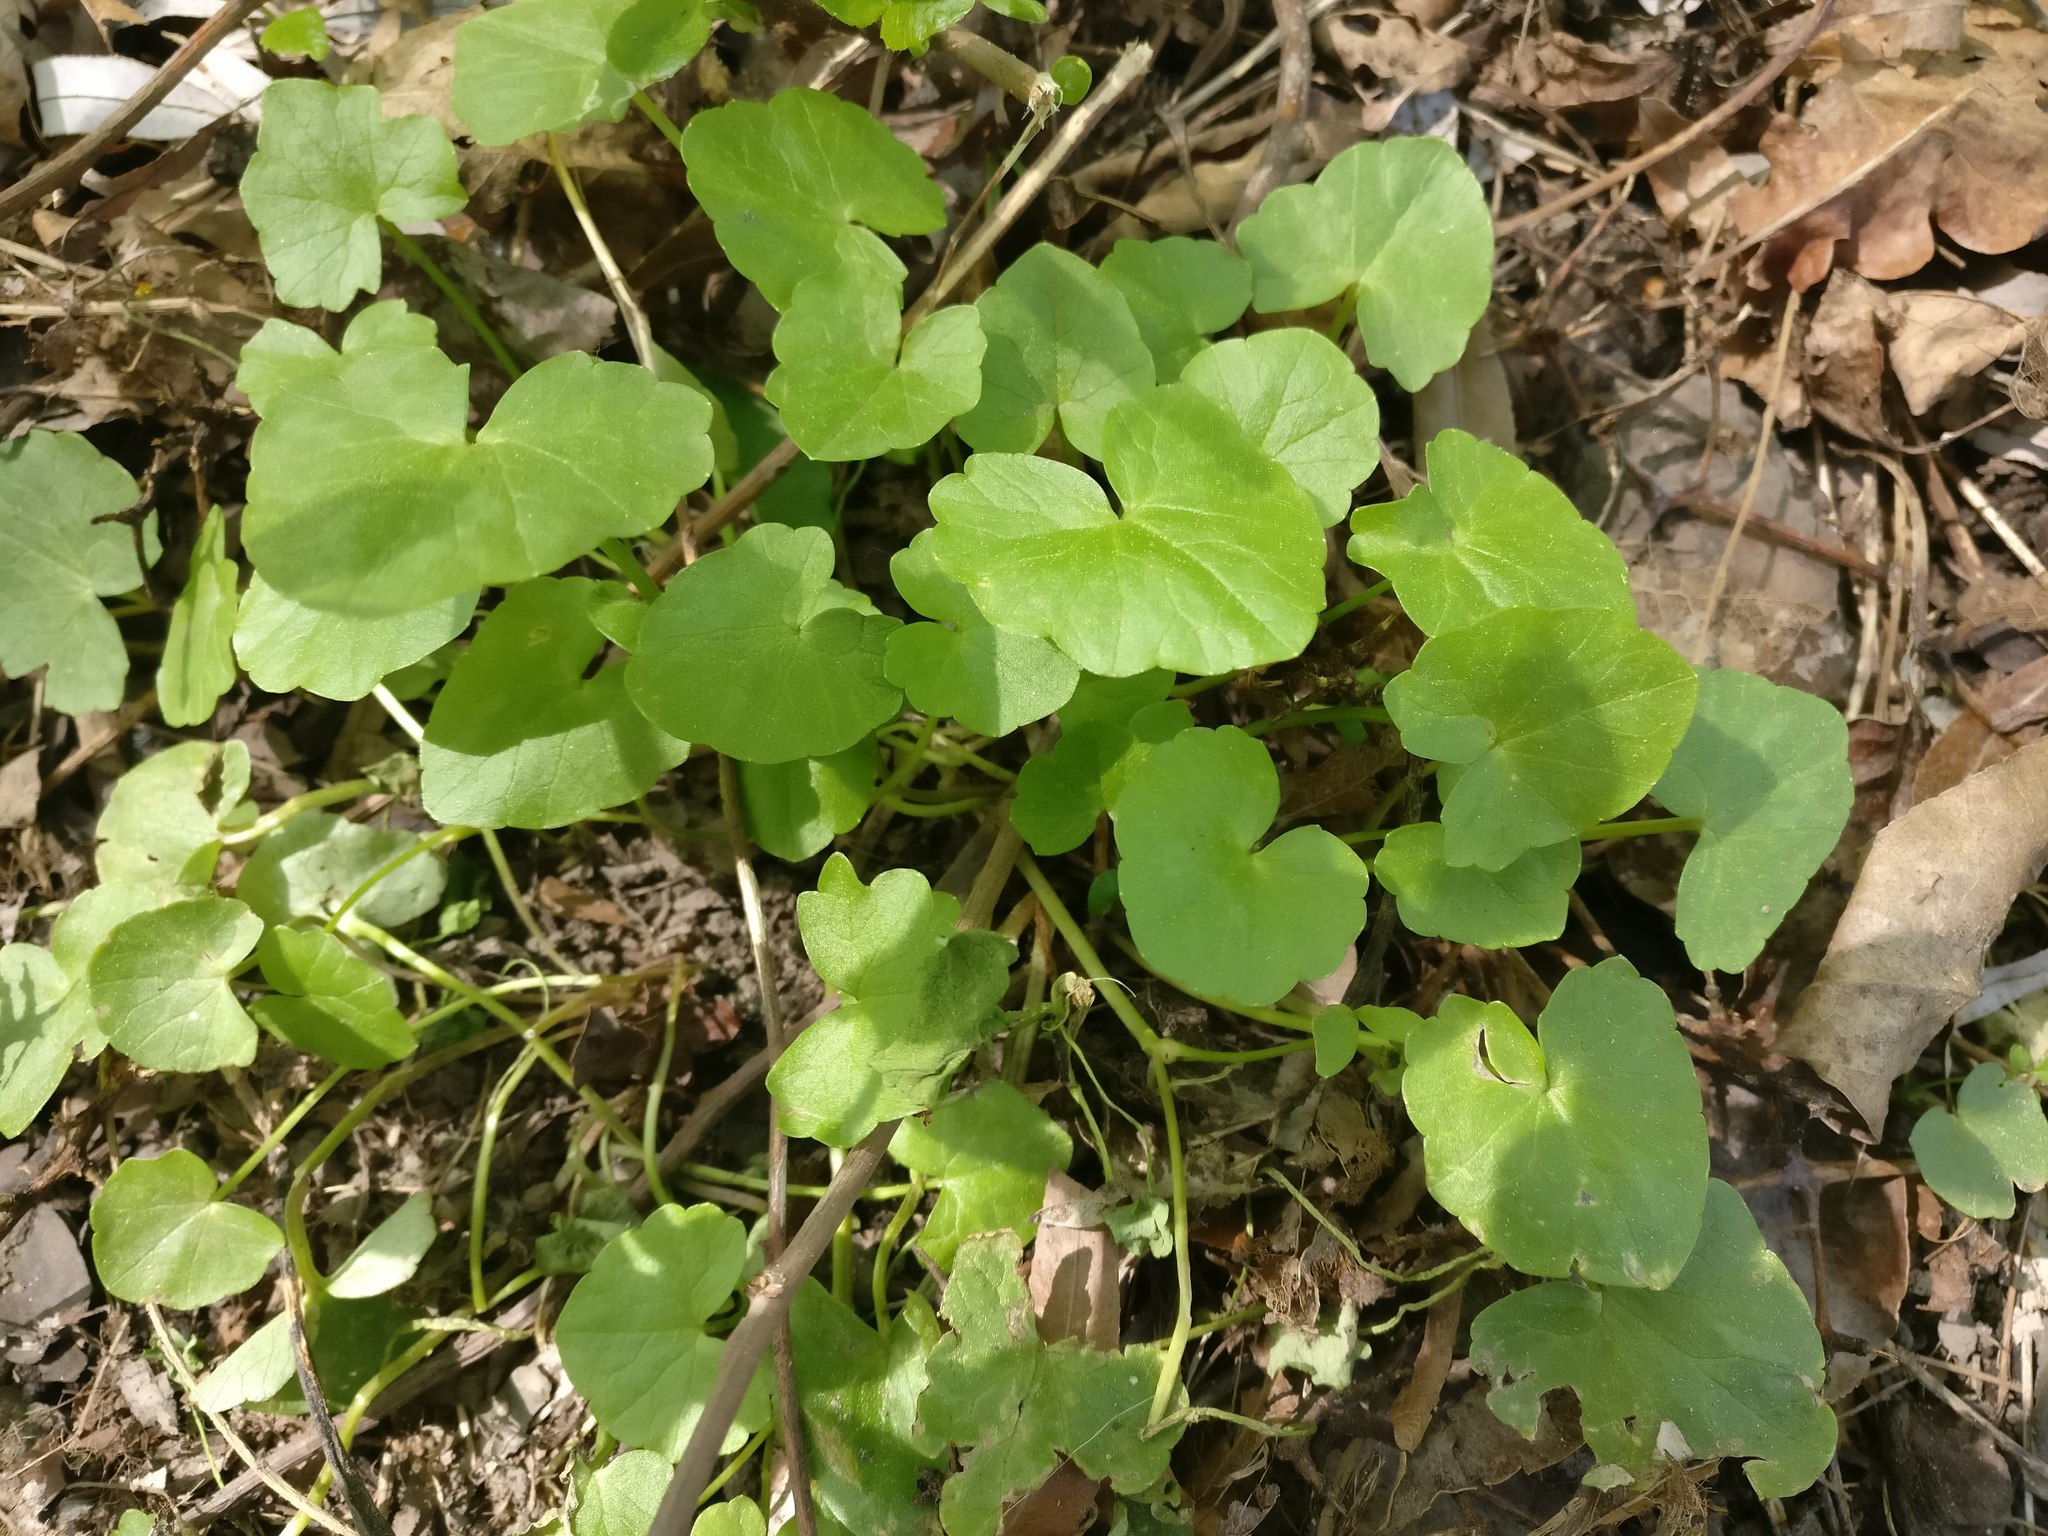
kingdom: Plantae
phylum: Tracheophyta
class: Magnoliopsida
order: Ranunculales
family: Ranunculaceae
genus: Ficaria
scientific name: Ficaria verna
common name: Lesser celandine
